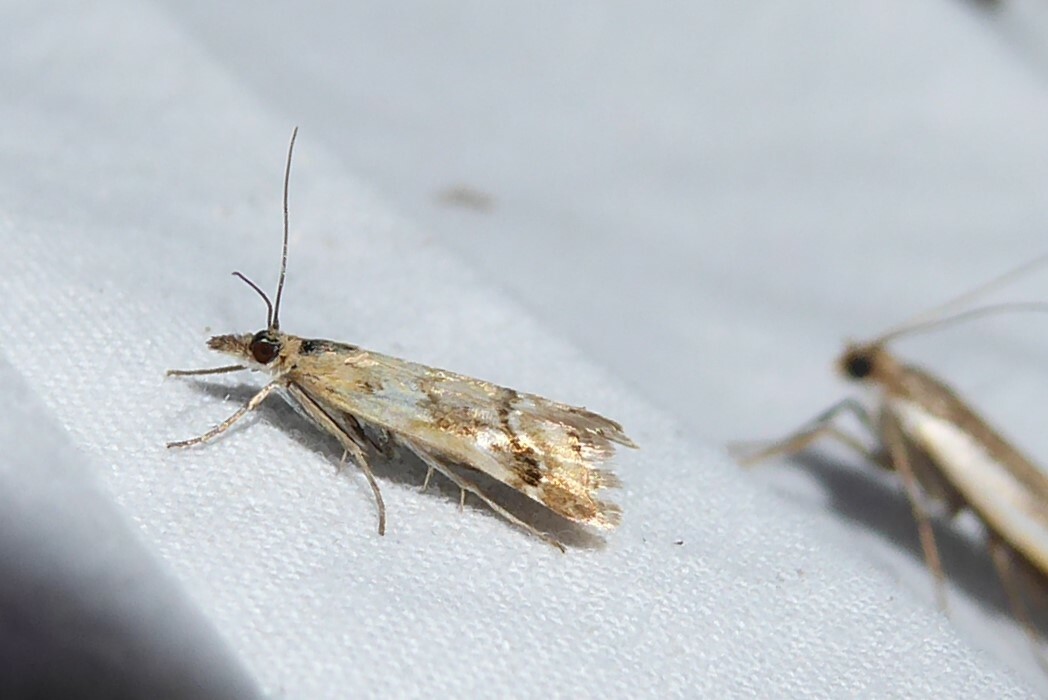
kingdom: Animalia
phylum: Arthropoda
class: Insecta
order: Lepidoptera
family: Crambidae
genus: Glaucocharis
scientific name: Glaucocharis helioctypa
